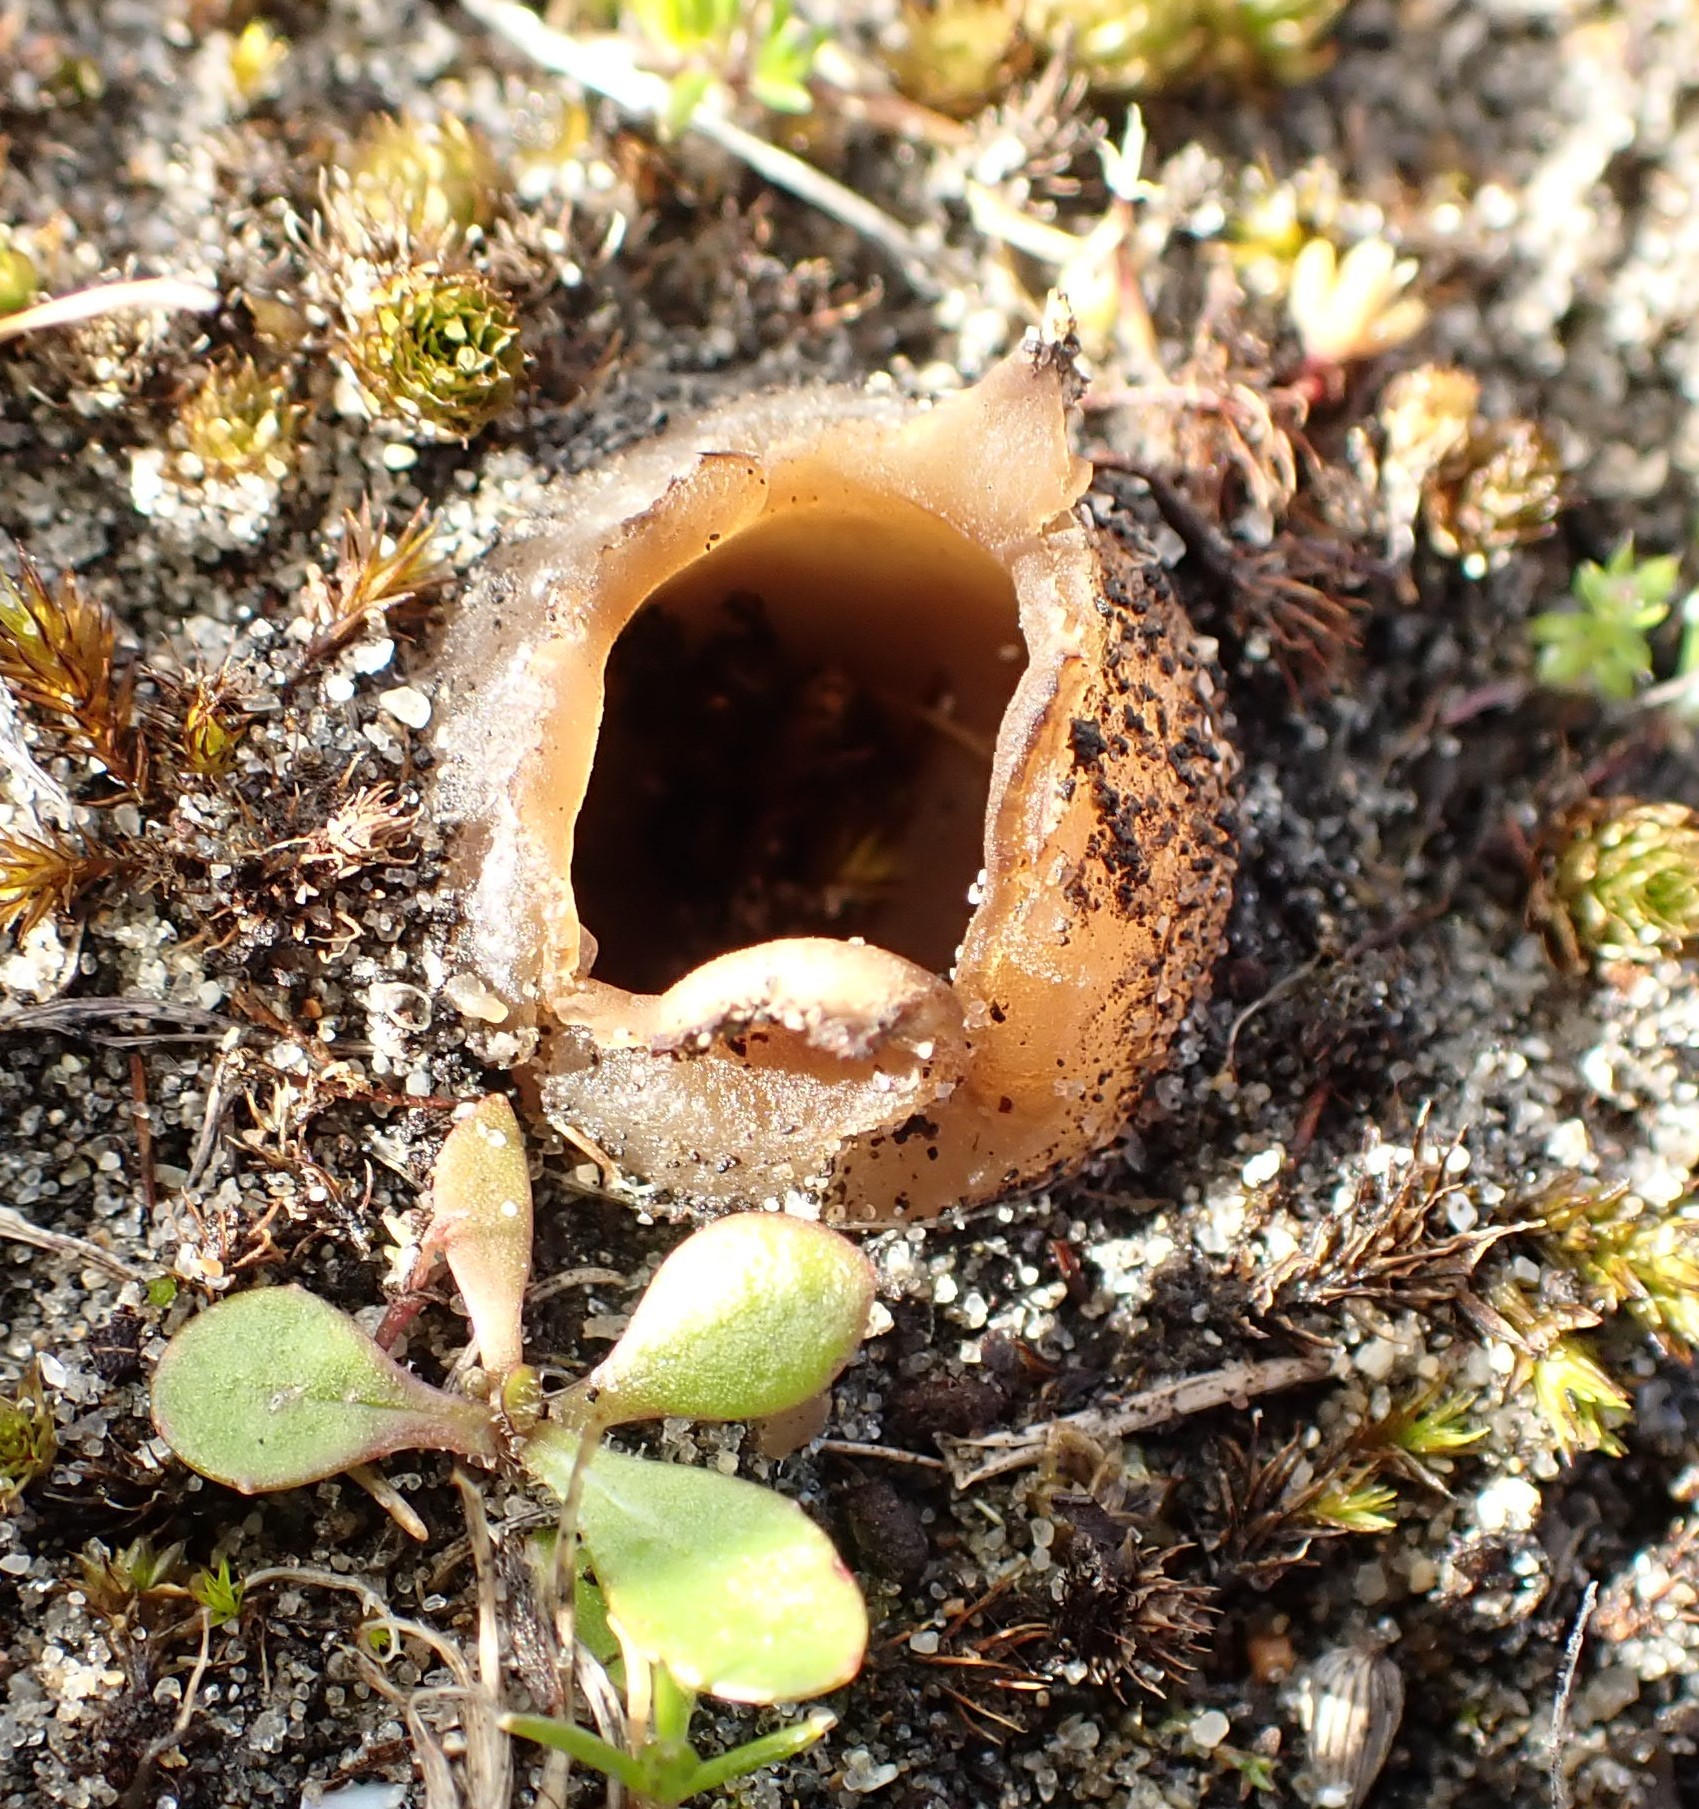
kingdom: Fungi
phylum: Ascomycota
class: Pezizomycetes
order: Pezizales
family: Pezizaceae
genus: Peziza
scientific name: Peziza austrogeaster
